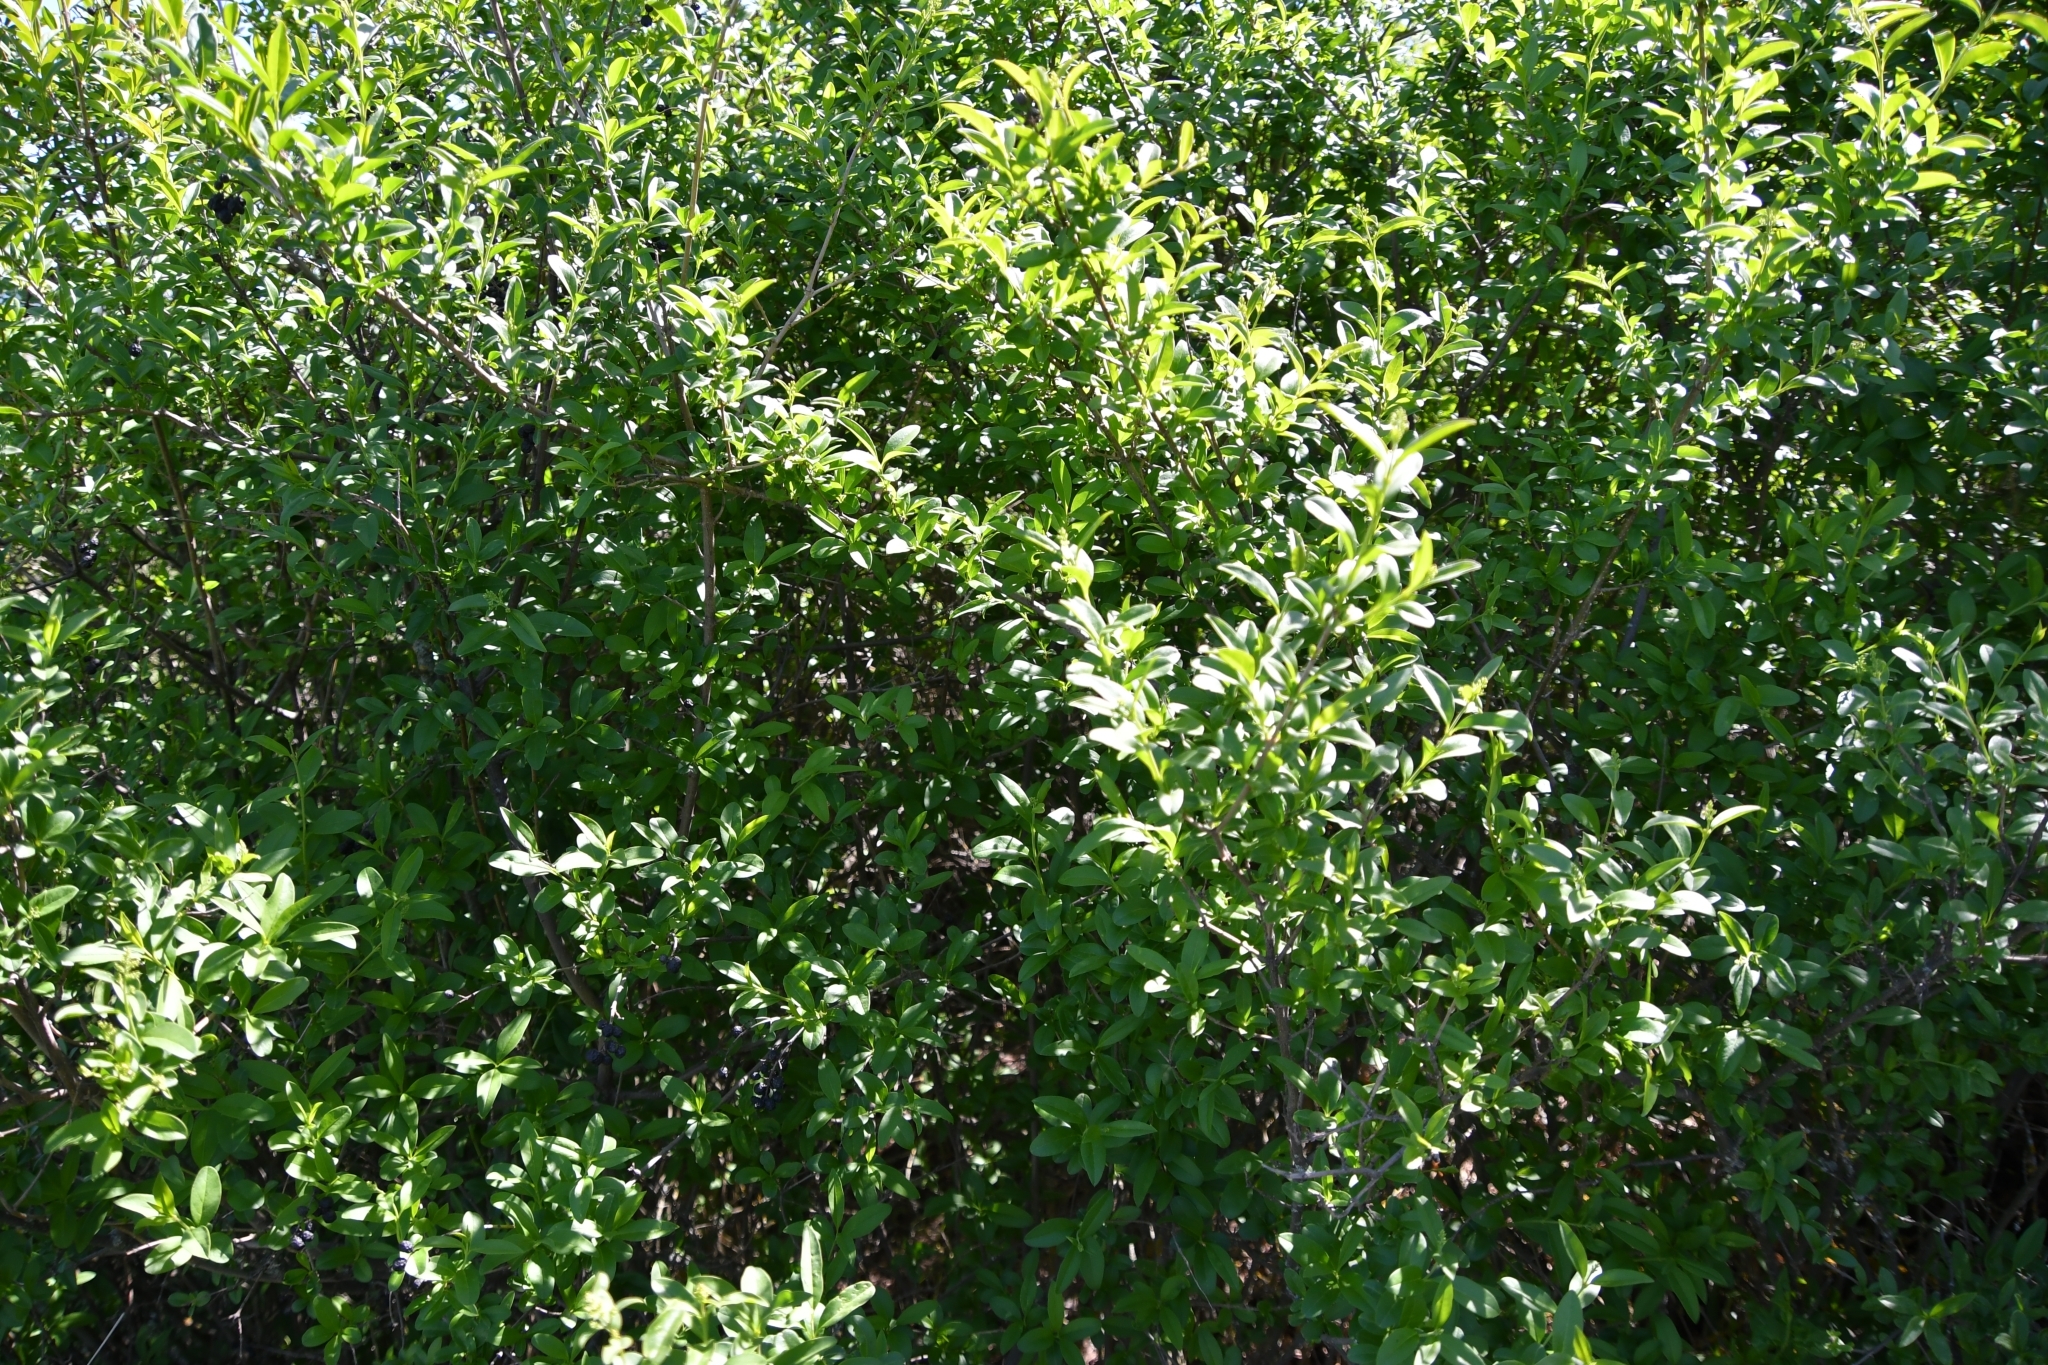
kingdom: Plantae
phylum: Tracheophyta
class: Magnoliopsida
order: Lamiales
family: Oleaceae
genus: Ligustrum
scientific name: Ligustrum vulgare
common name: Wild privet
